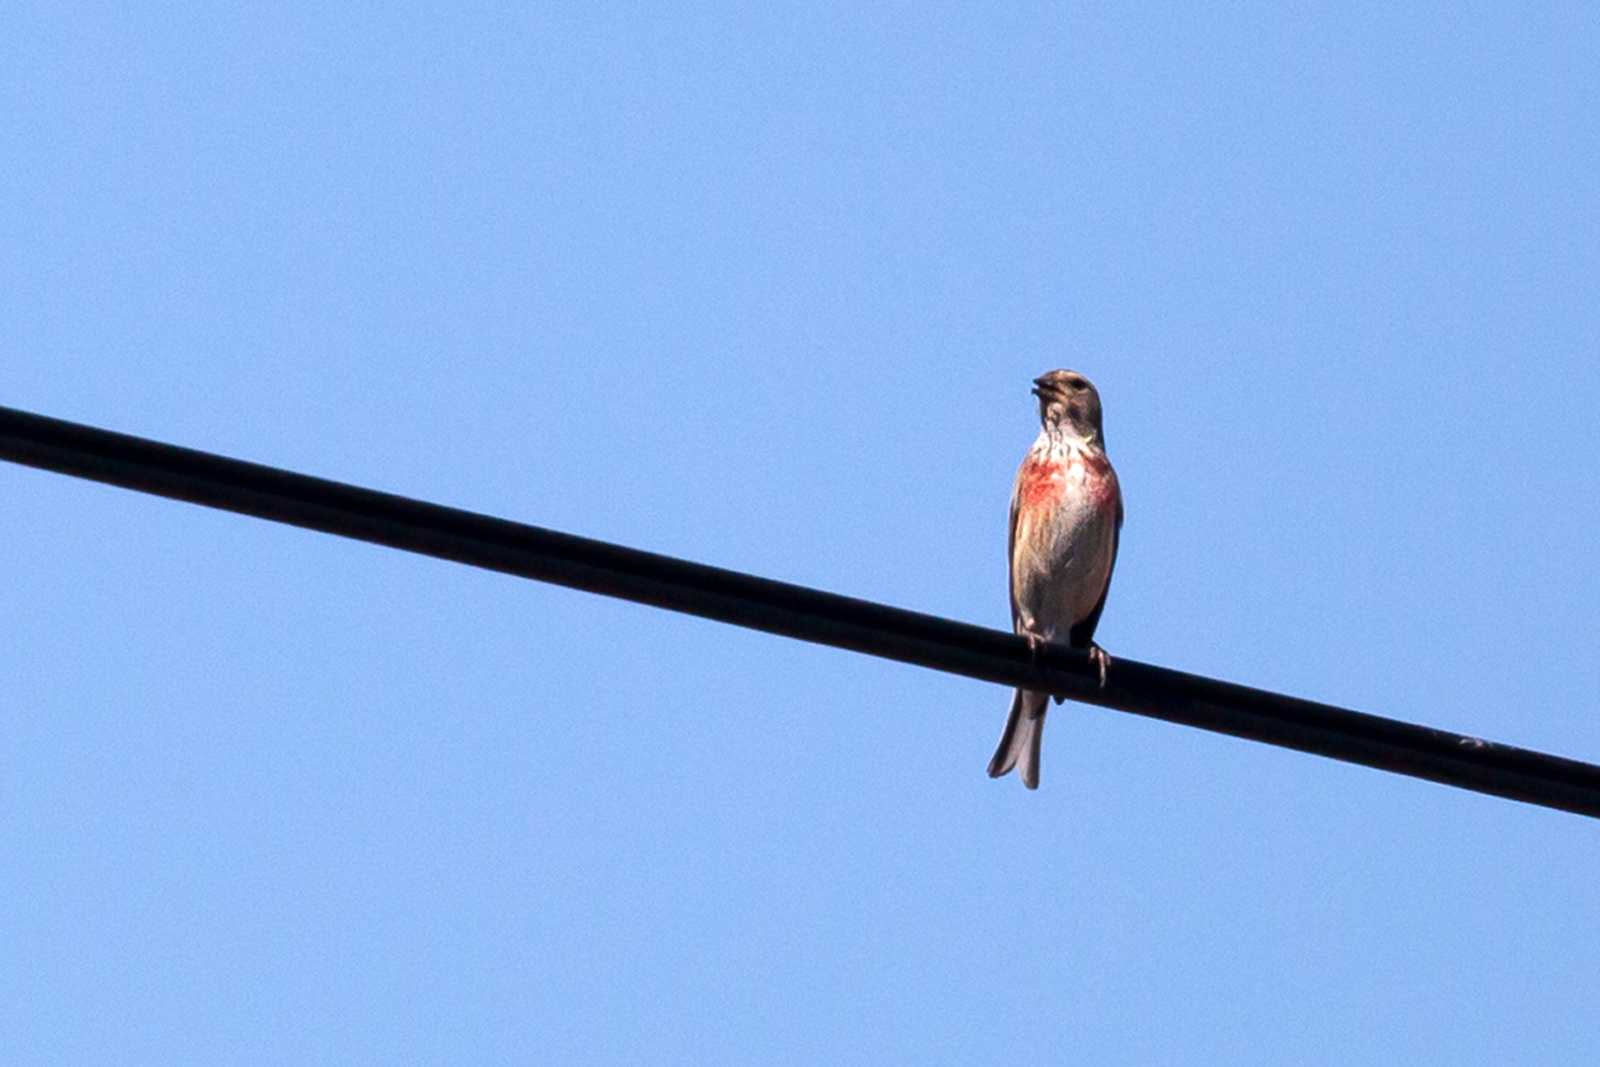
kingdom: Animalia
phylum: Chordata
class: Aves
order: Passeriformes
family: Fringillidae
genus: Linaria
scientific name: Linaria cannabina
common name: Common linnet
